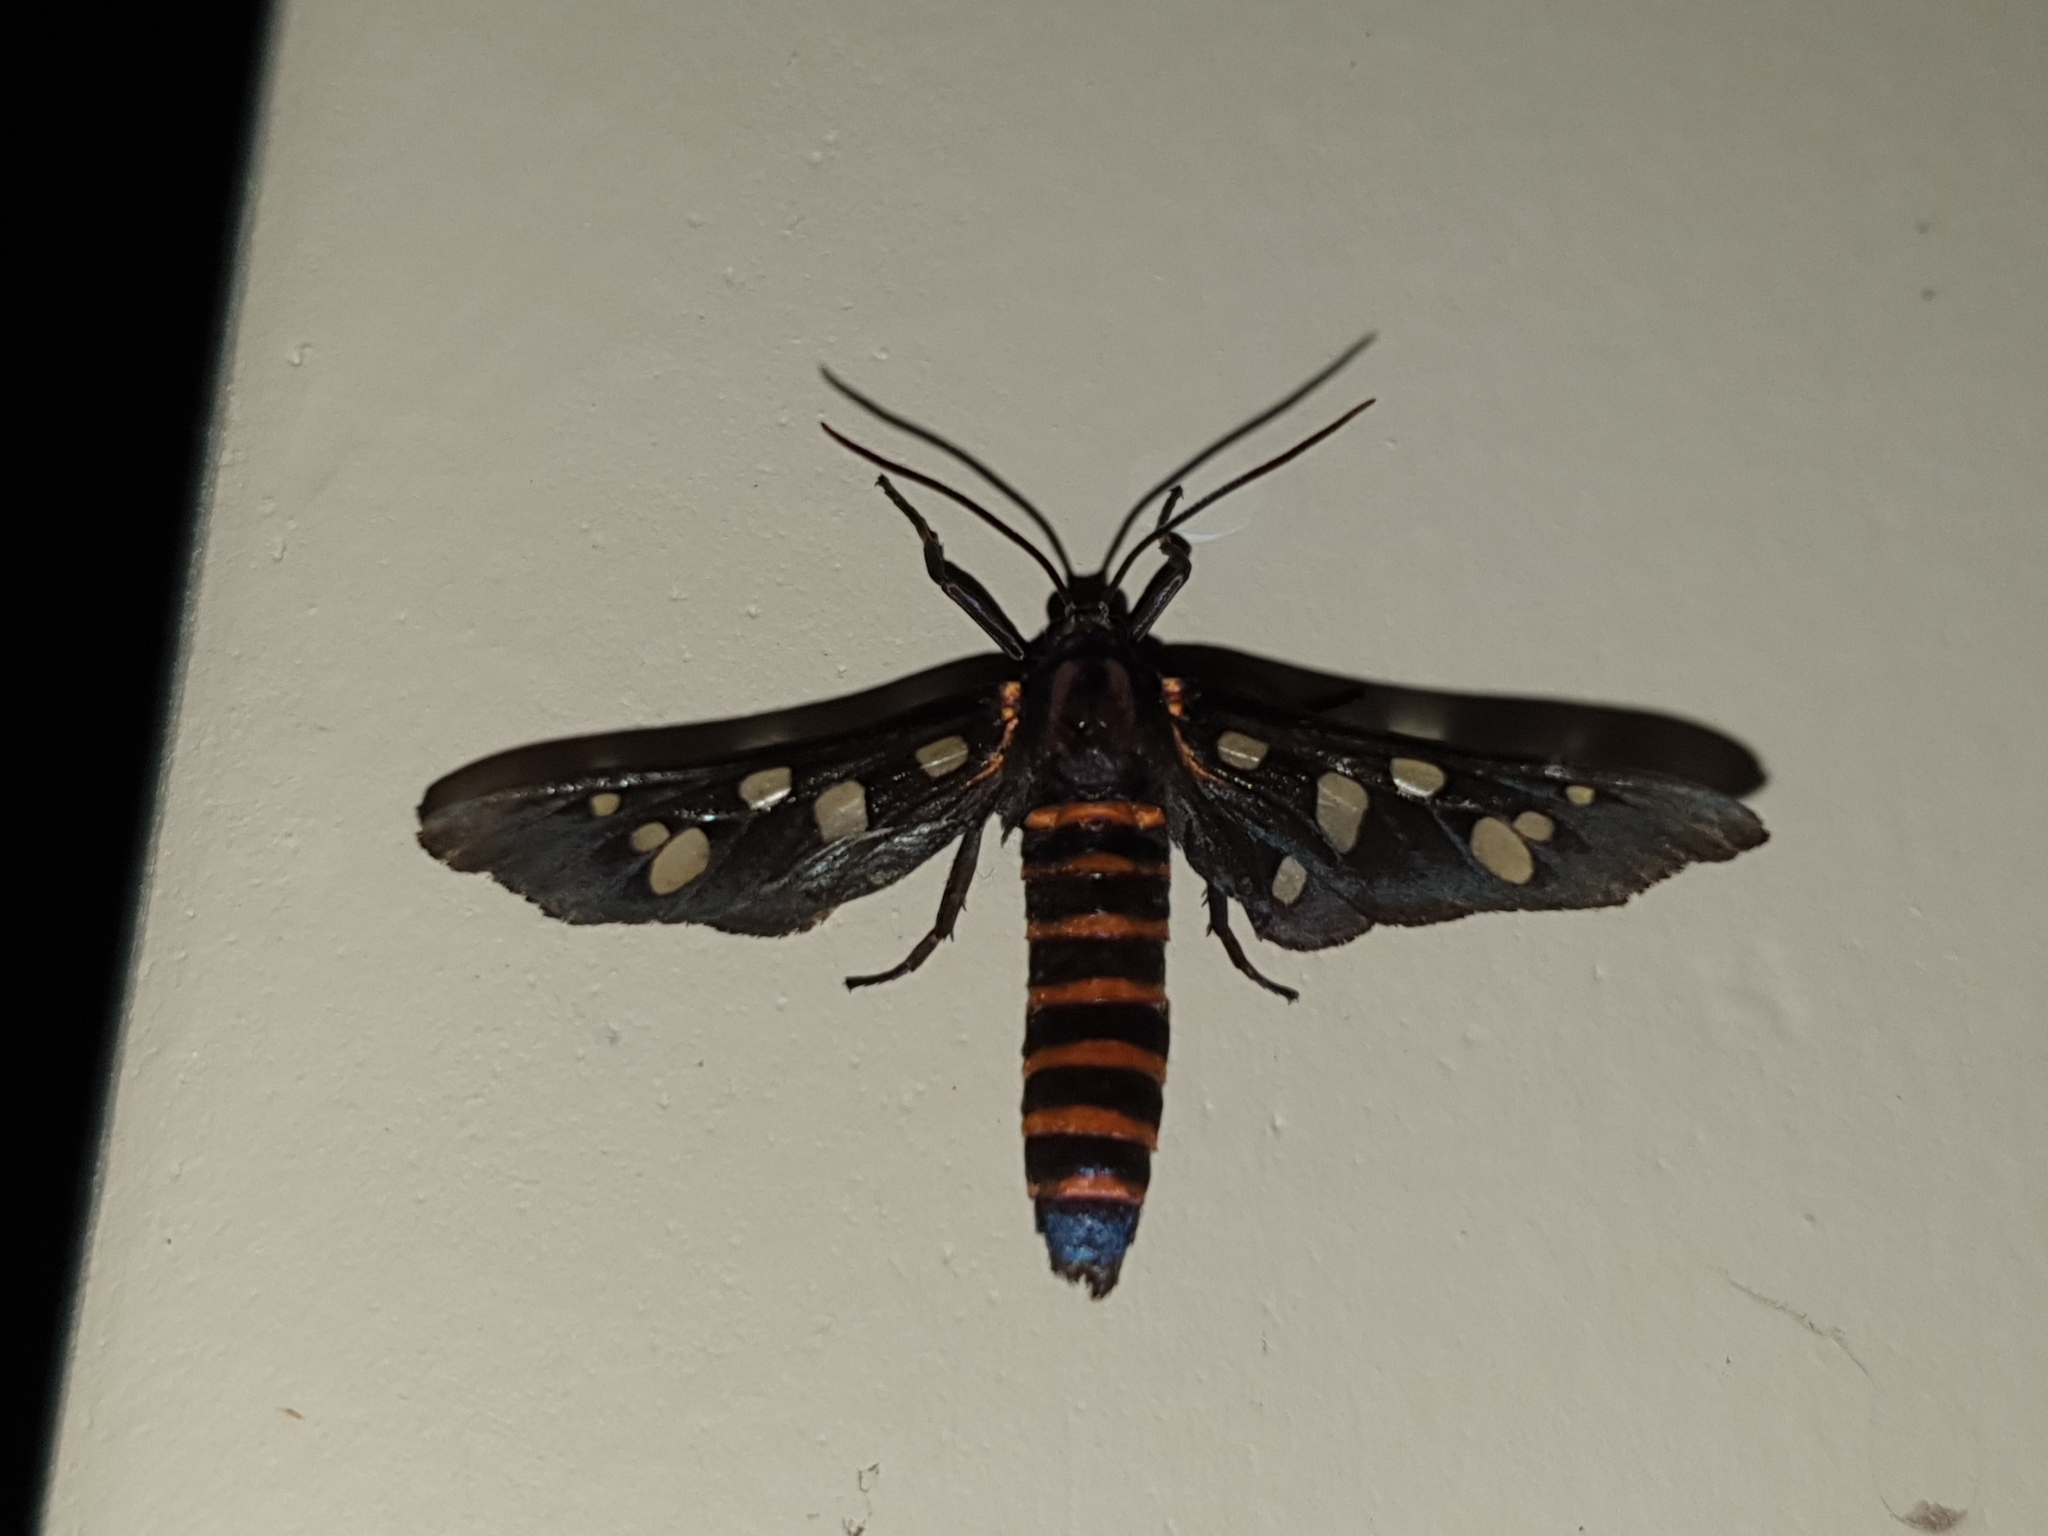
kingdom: Animalia
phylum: Arthropoda
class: Insecta
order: Lepidoptera
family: Erebidae
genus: Amata
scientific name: Amata passalis
